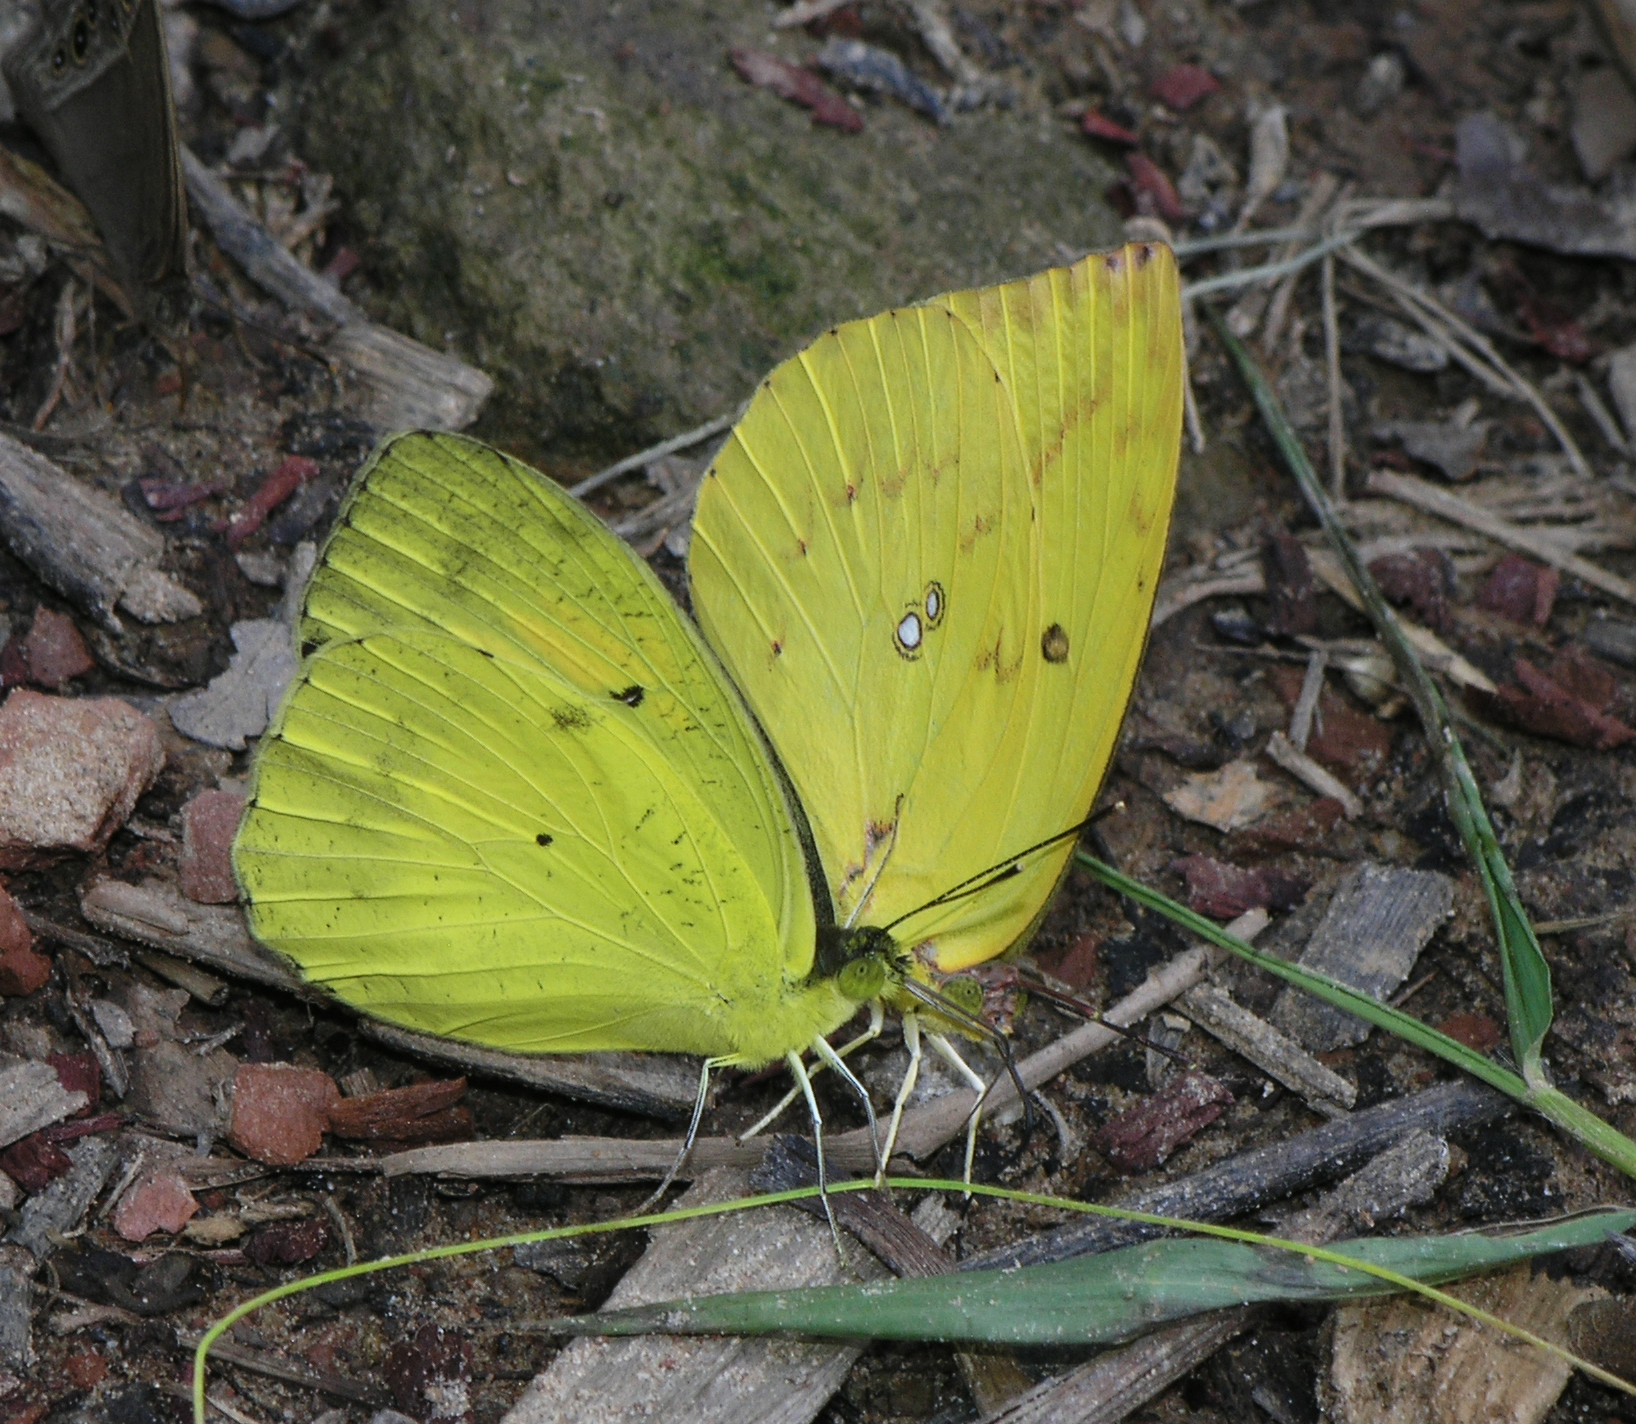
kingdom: Animalia
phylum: Arthropoda
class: Insecta
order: Lepidoptera
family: Pieridae
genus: Ixias
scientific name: Ixias pyrene
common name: Yellow orange tip
